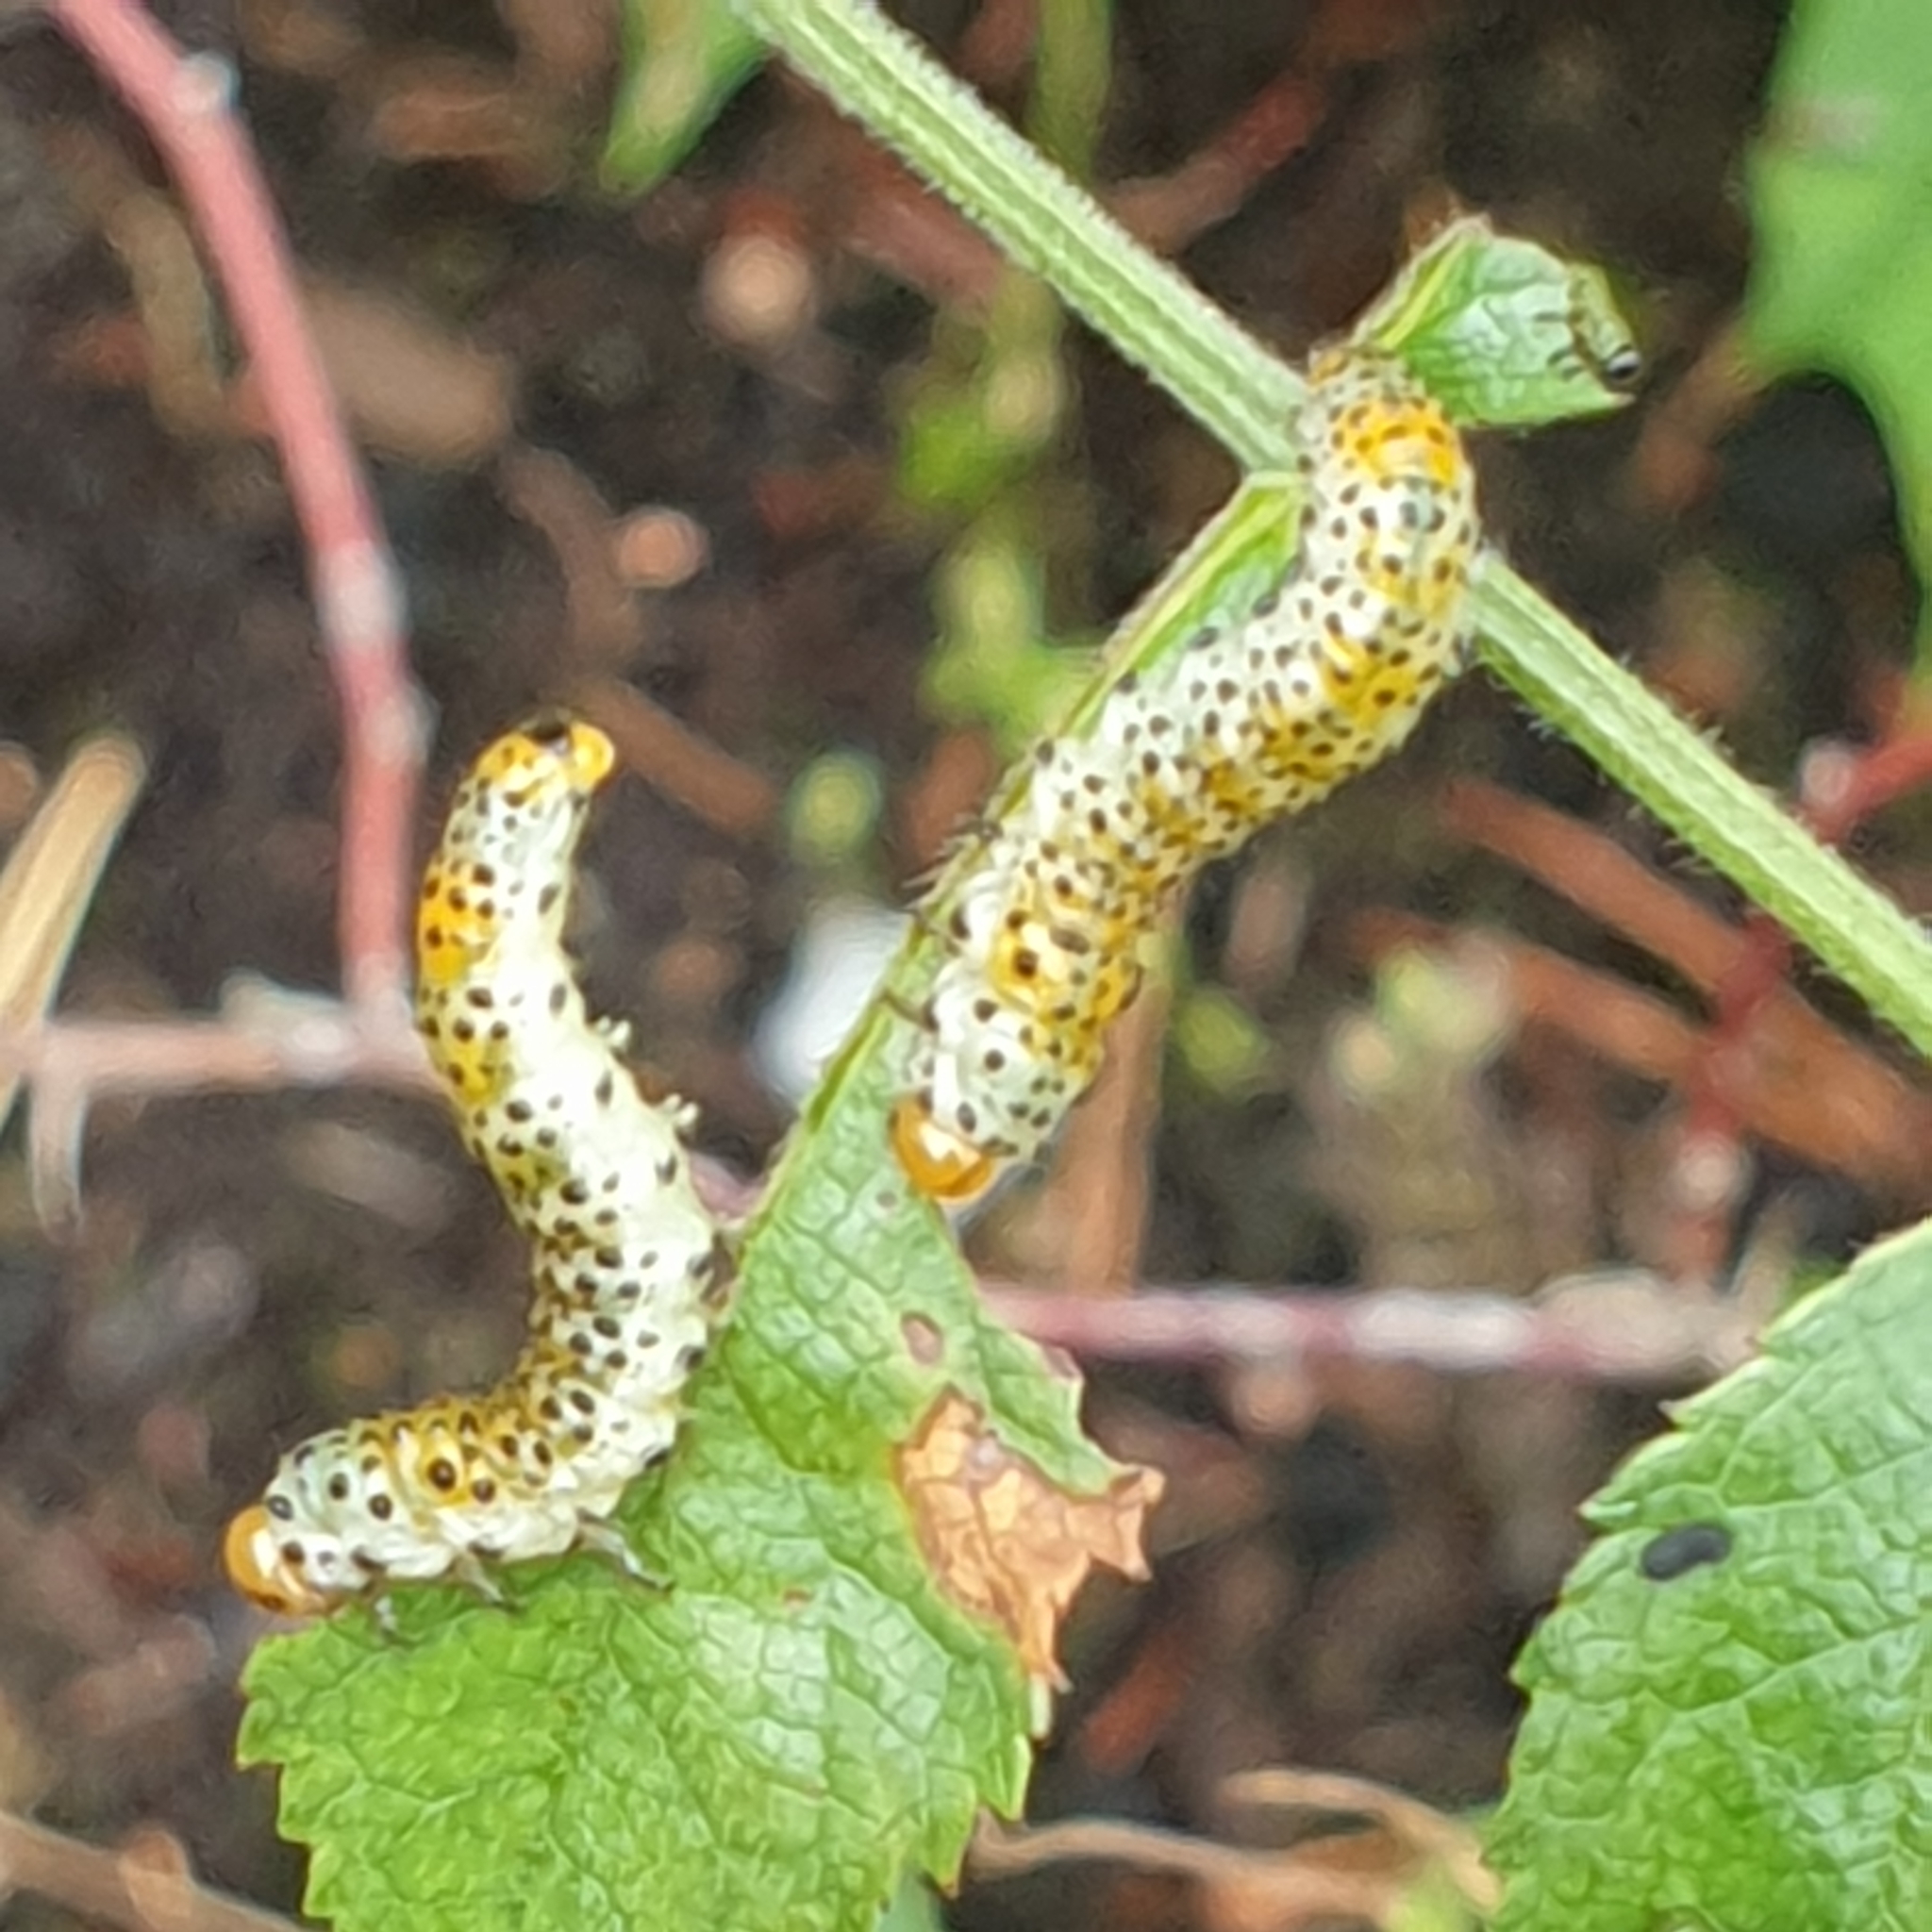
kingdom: Animalia
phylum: Arthropoda
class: Insecta
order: Hymenoptera
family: Argidae
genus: Arge
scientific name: Arge ochropus
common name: Argid sawfly
